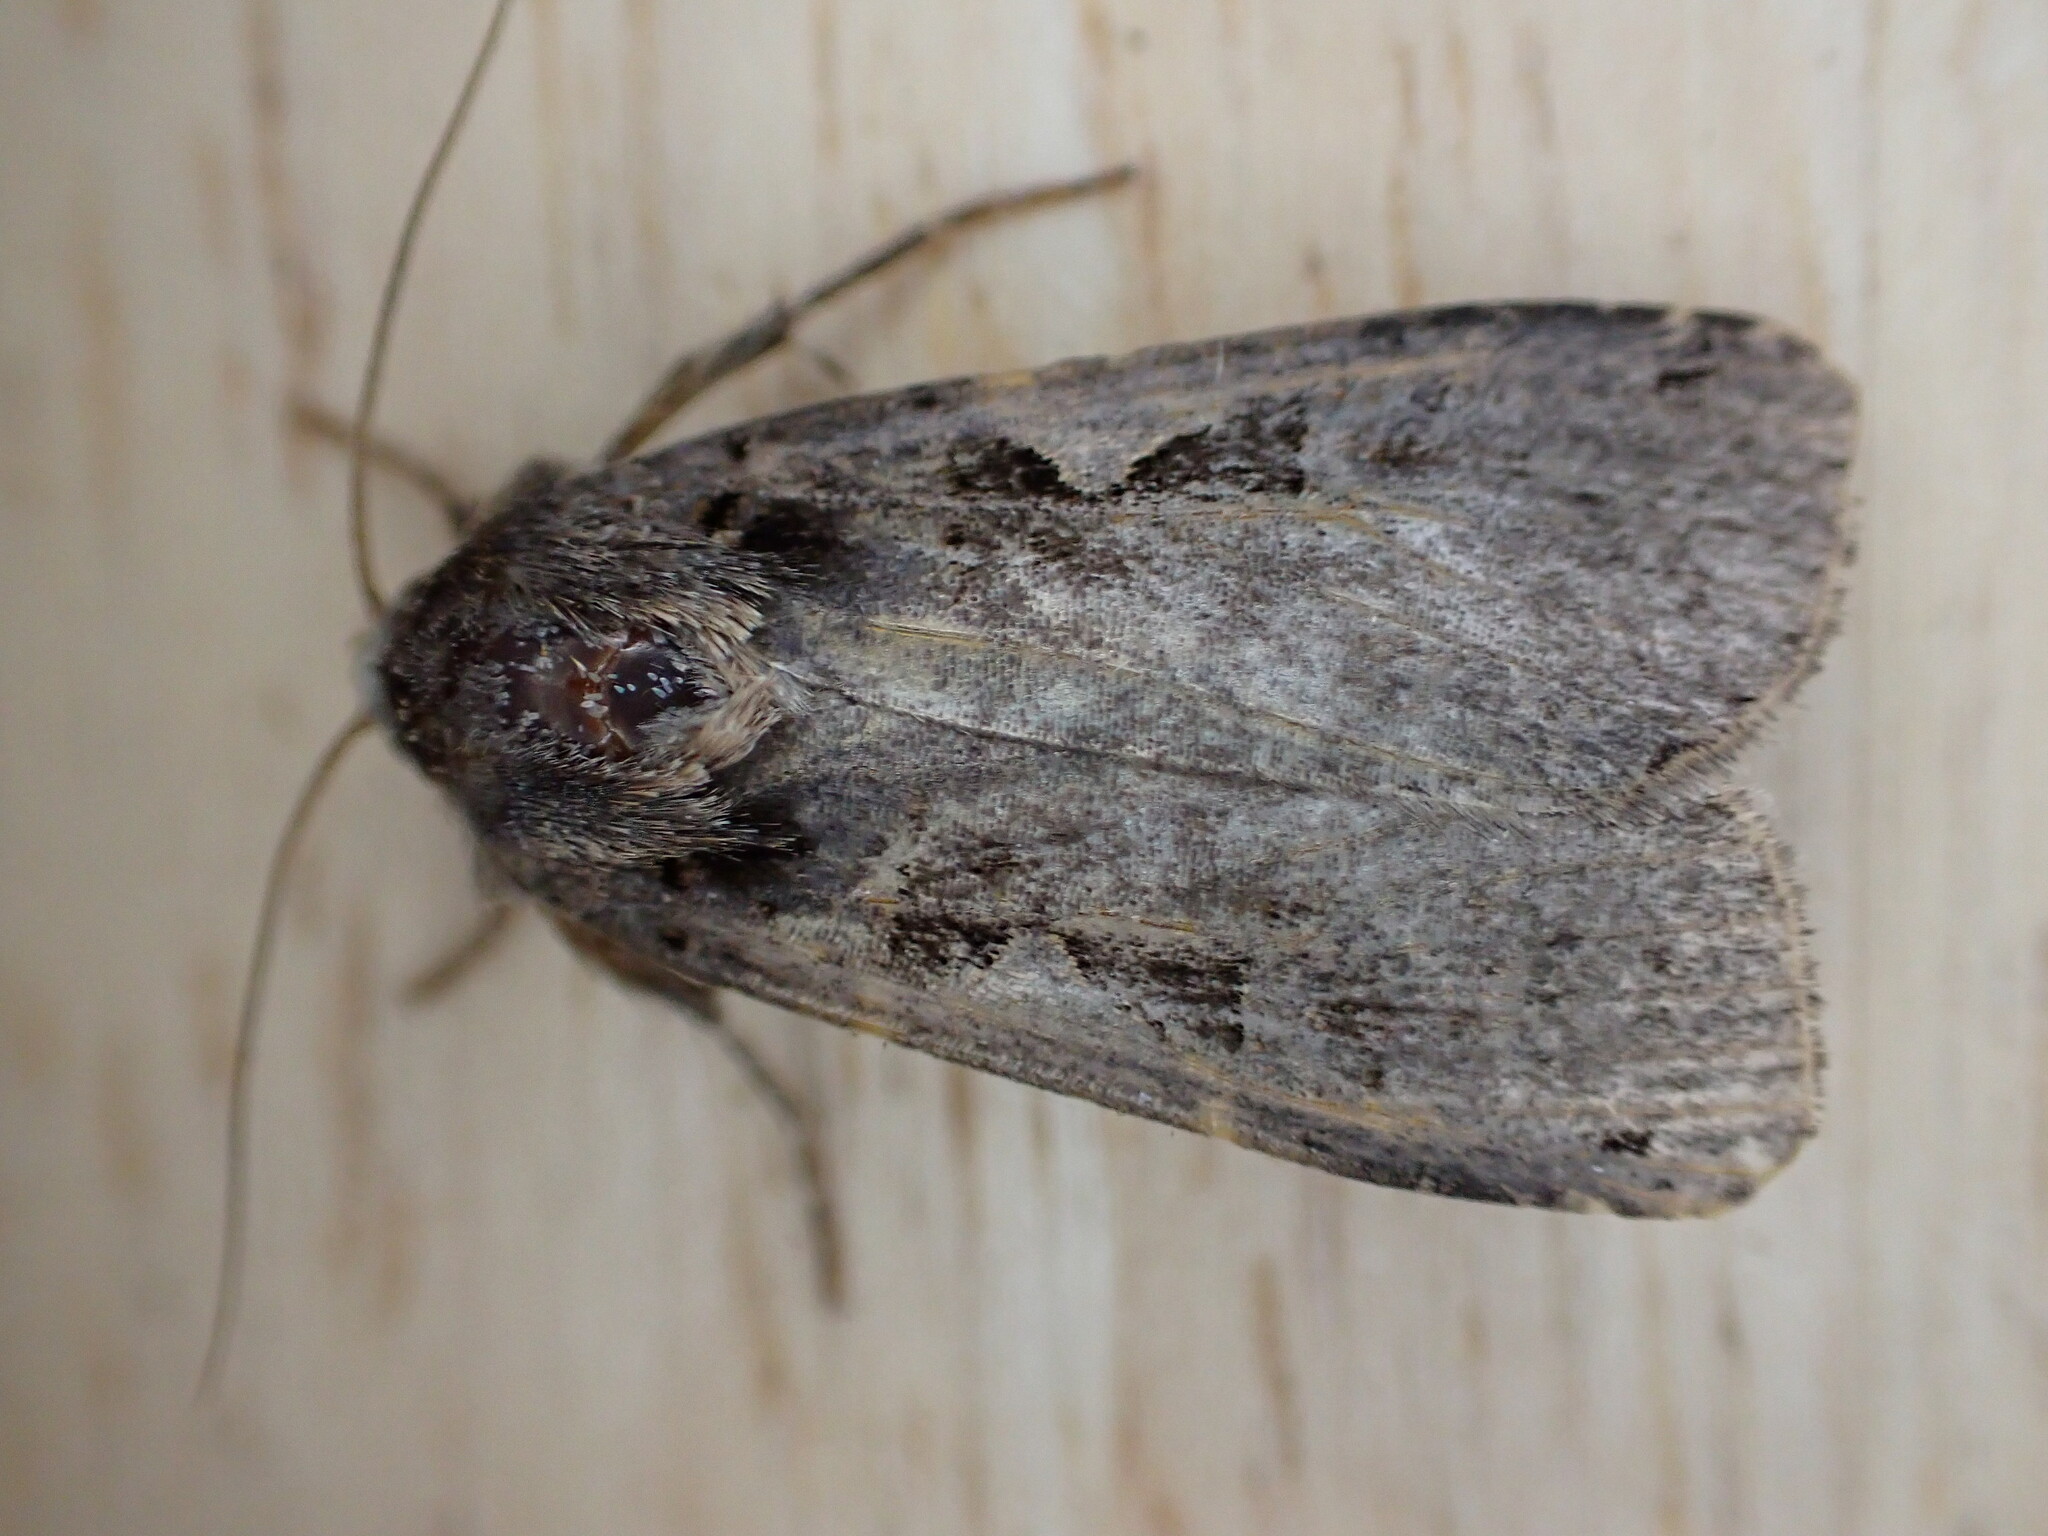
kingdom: Animalia
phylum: Arthropoda
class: Insecta
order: Lepidoptera
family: Noctuidae
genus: Xestia
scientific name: Xestia c-nigrum
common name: Setaceous hebrew character
